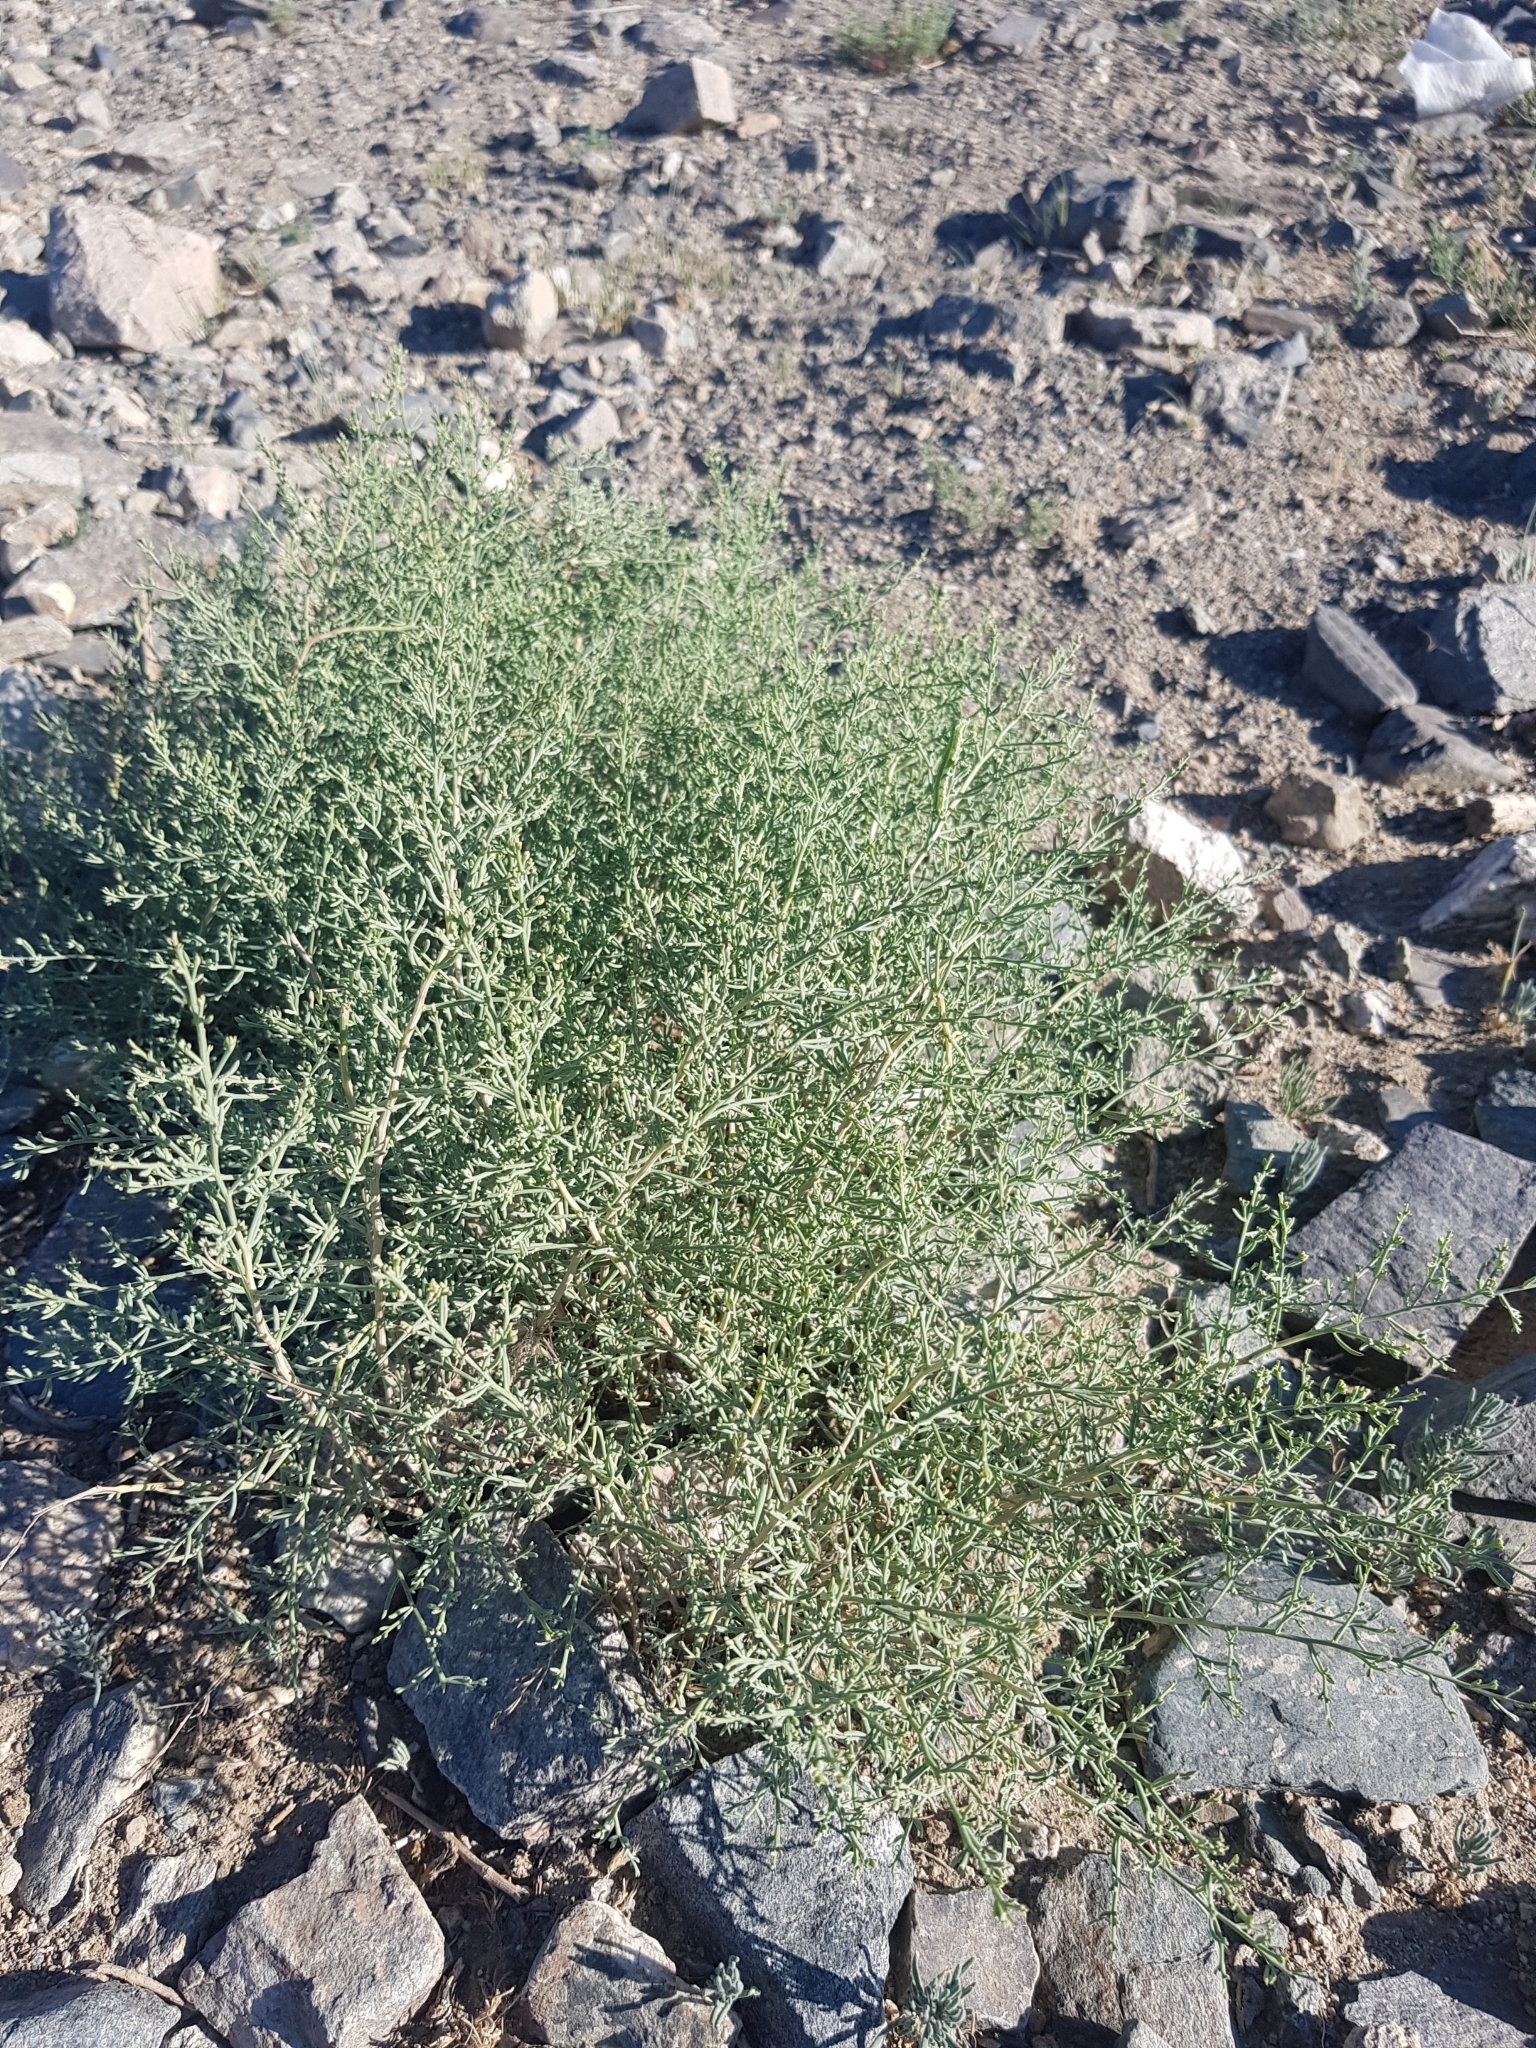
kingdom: Plantae
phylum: Tracheophyta
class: Magnoliopsida
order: Caryophyllales
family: Amaranthaceae
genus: Sympegma
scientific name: Sympegma regelii
